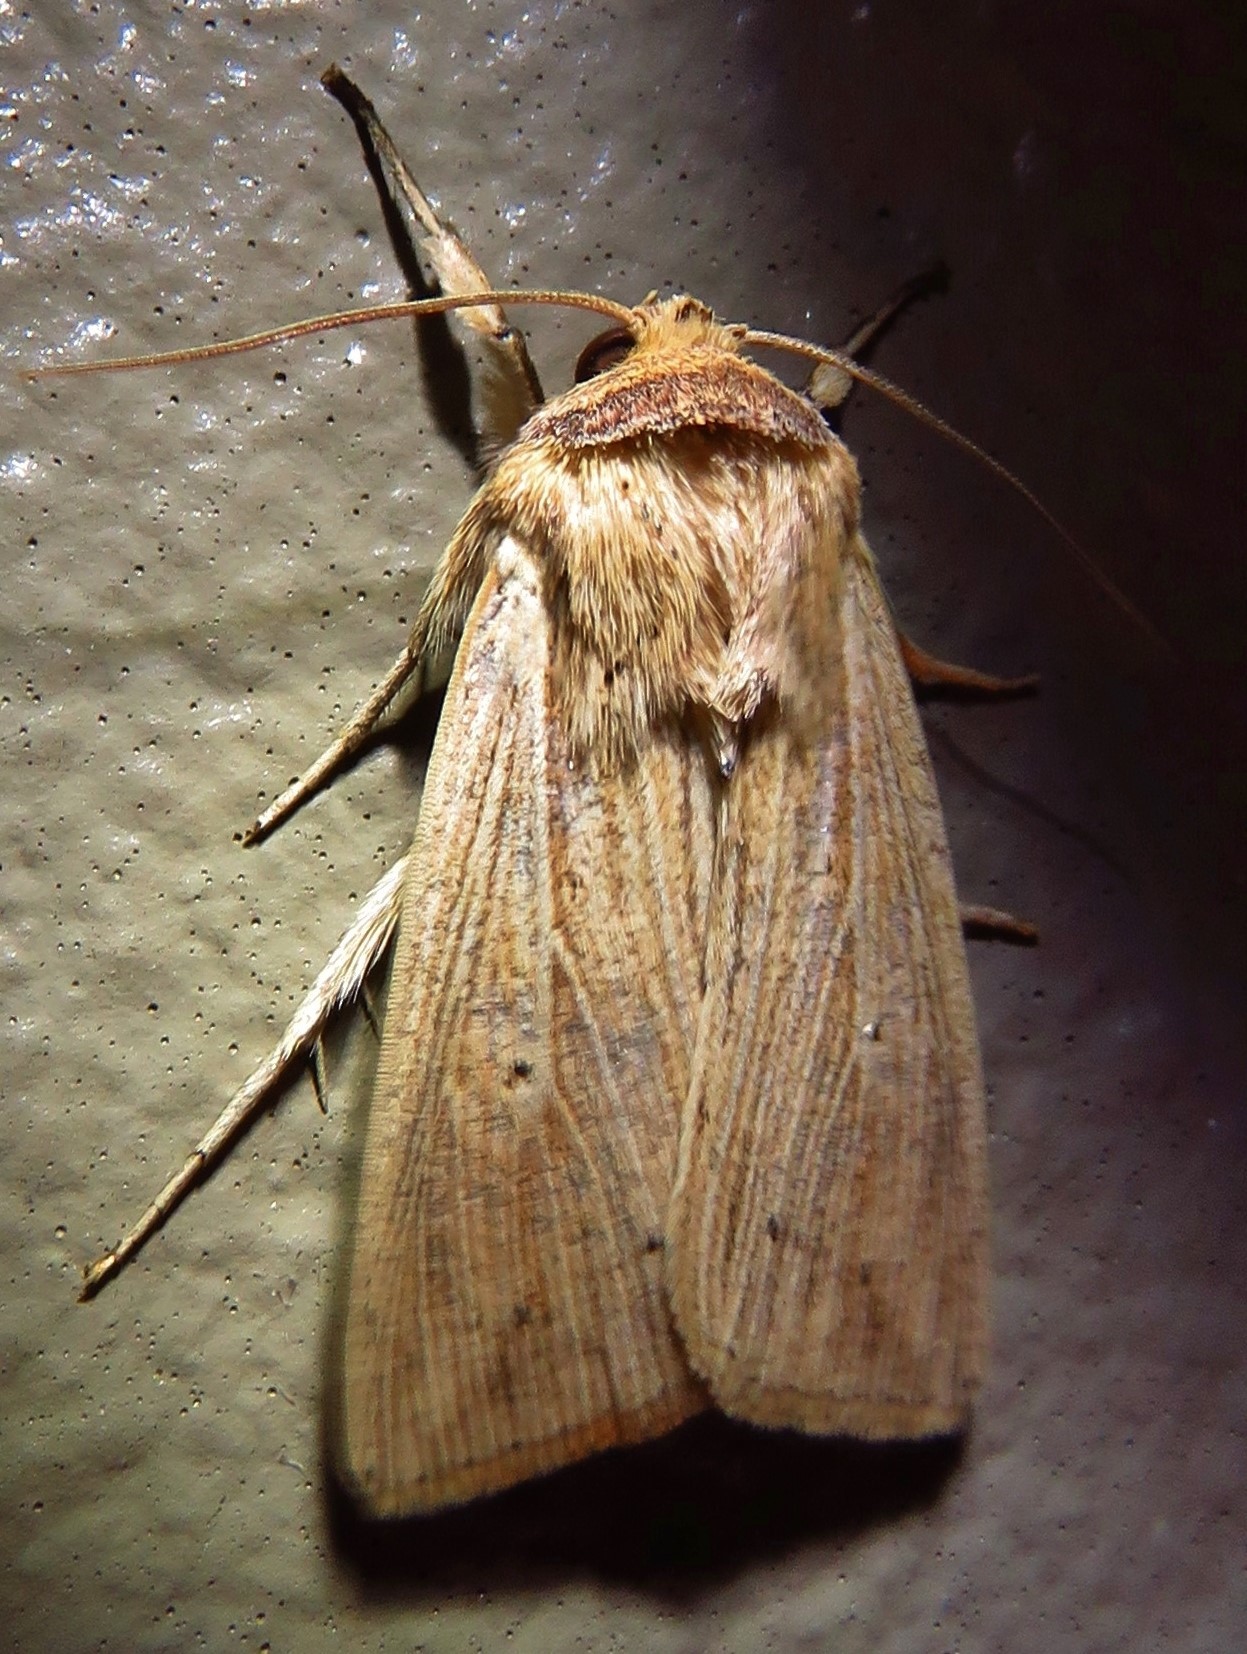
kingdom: Animalia
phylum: Arthropoda
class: Insecta
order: Lepidoptera
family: Noctuidae
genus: Leucania
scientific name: Leucania adjuta
